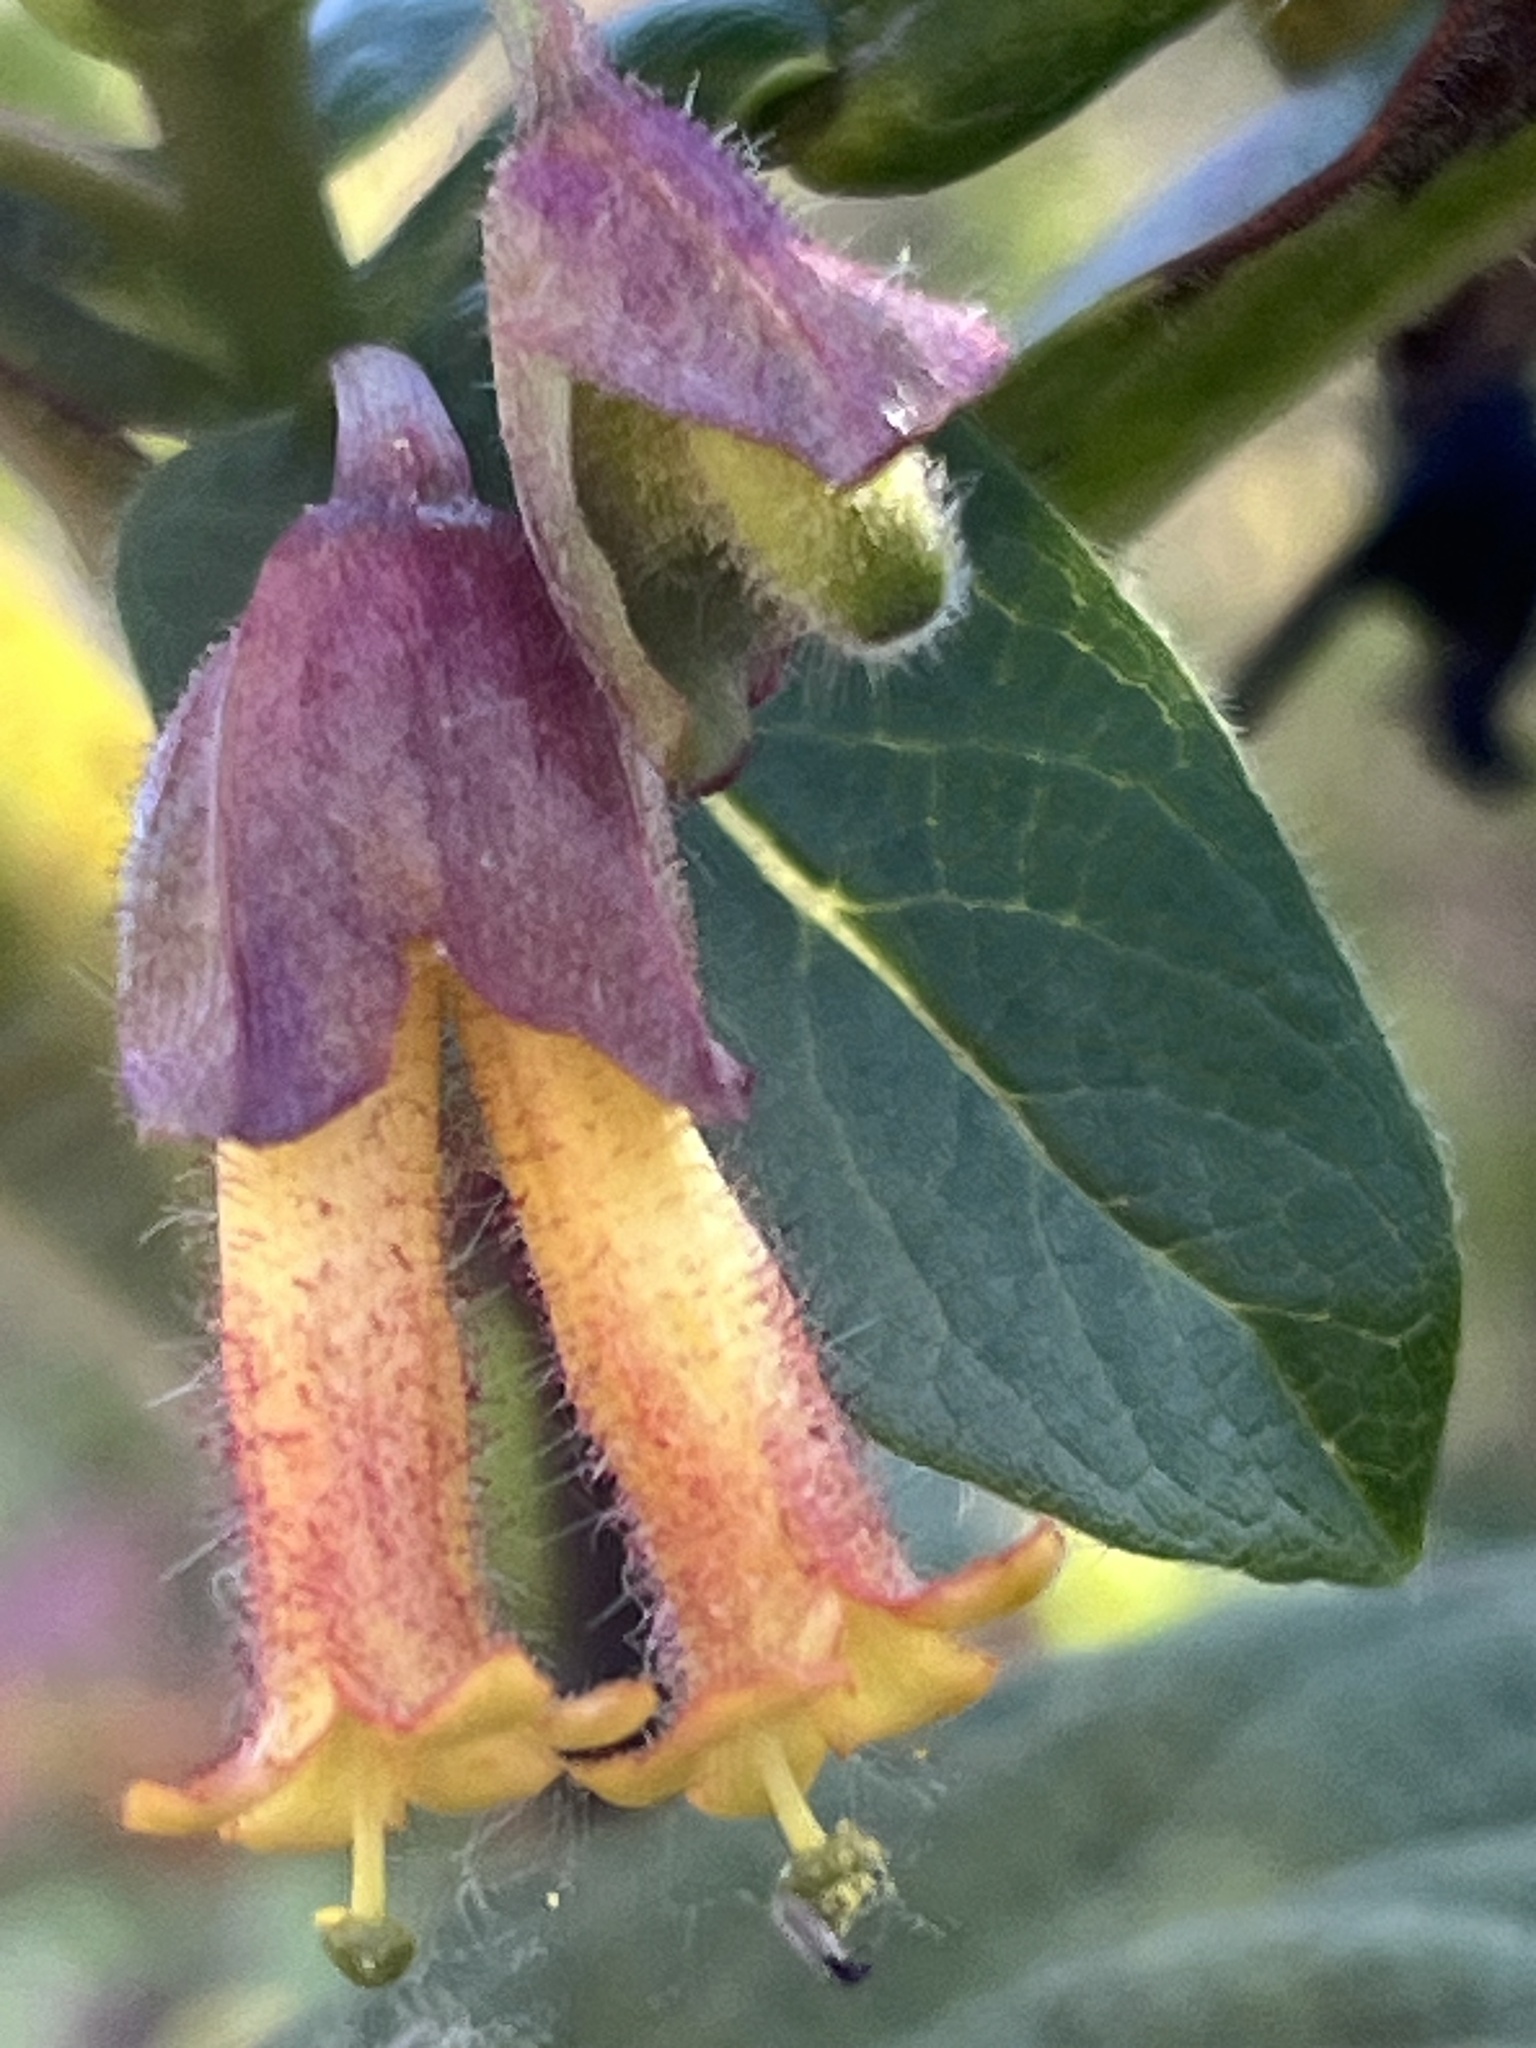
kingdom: Plantae
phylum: Tracheophyta
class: Magnoliopsida
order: Dipsacales
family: Caprifoliaceae
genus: Lonicera
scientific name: Lonicera involucrata
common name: Californian honeysuckle
